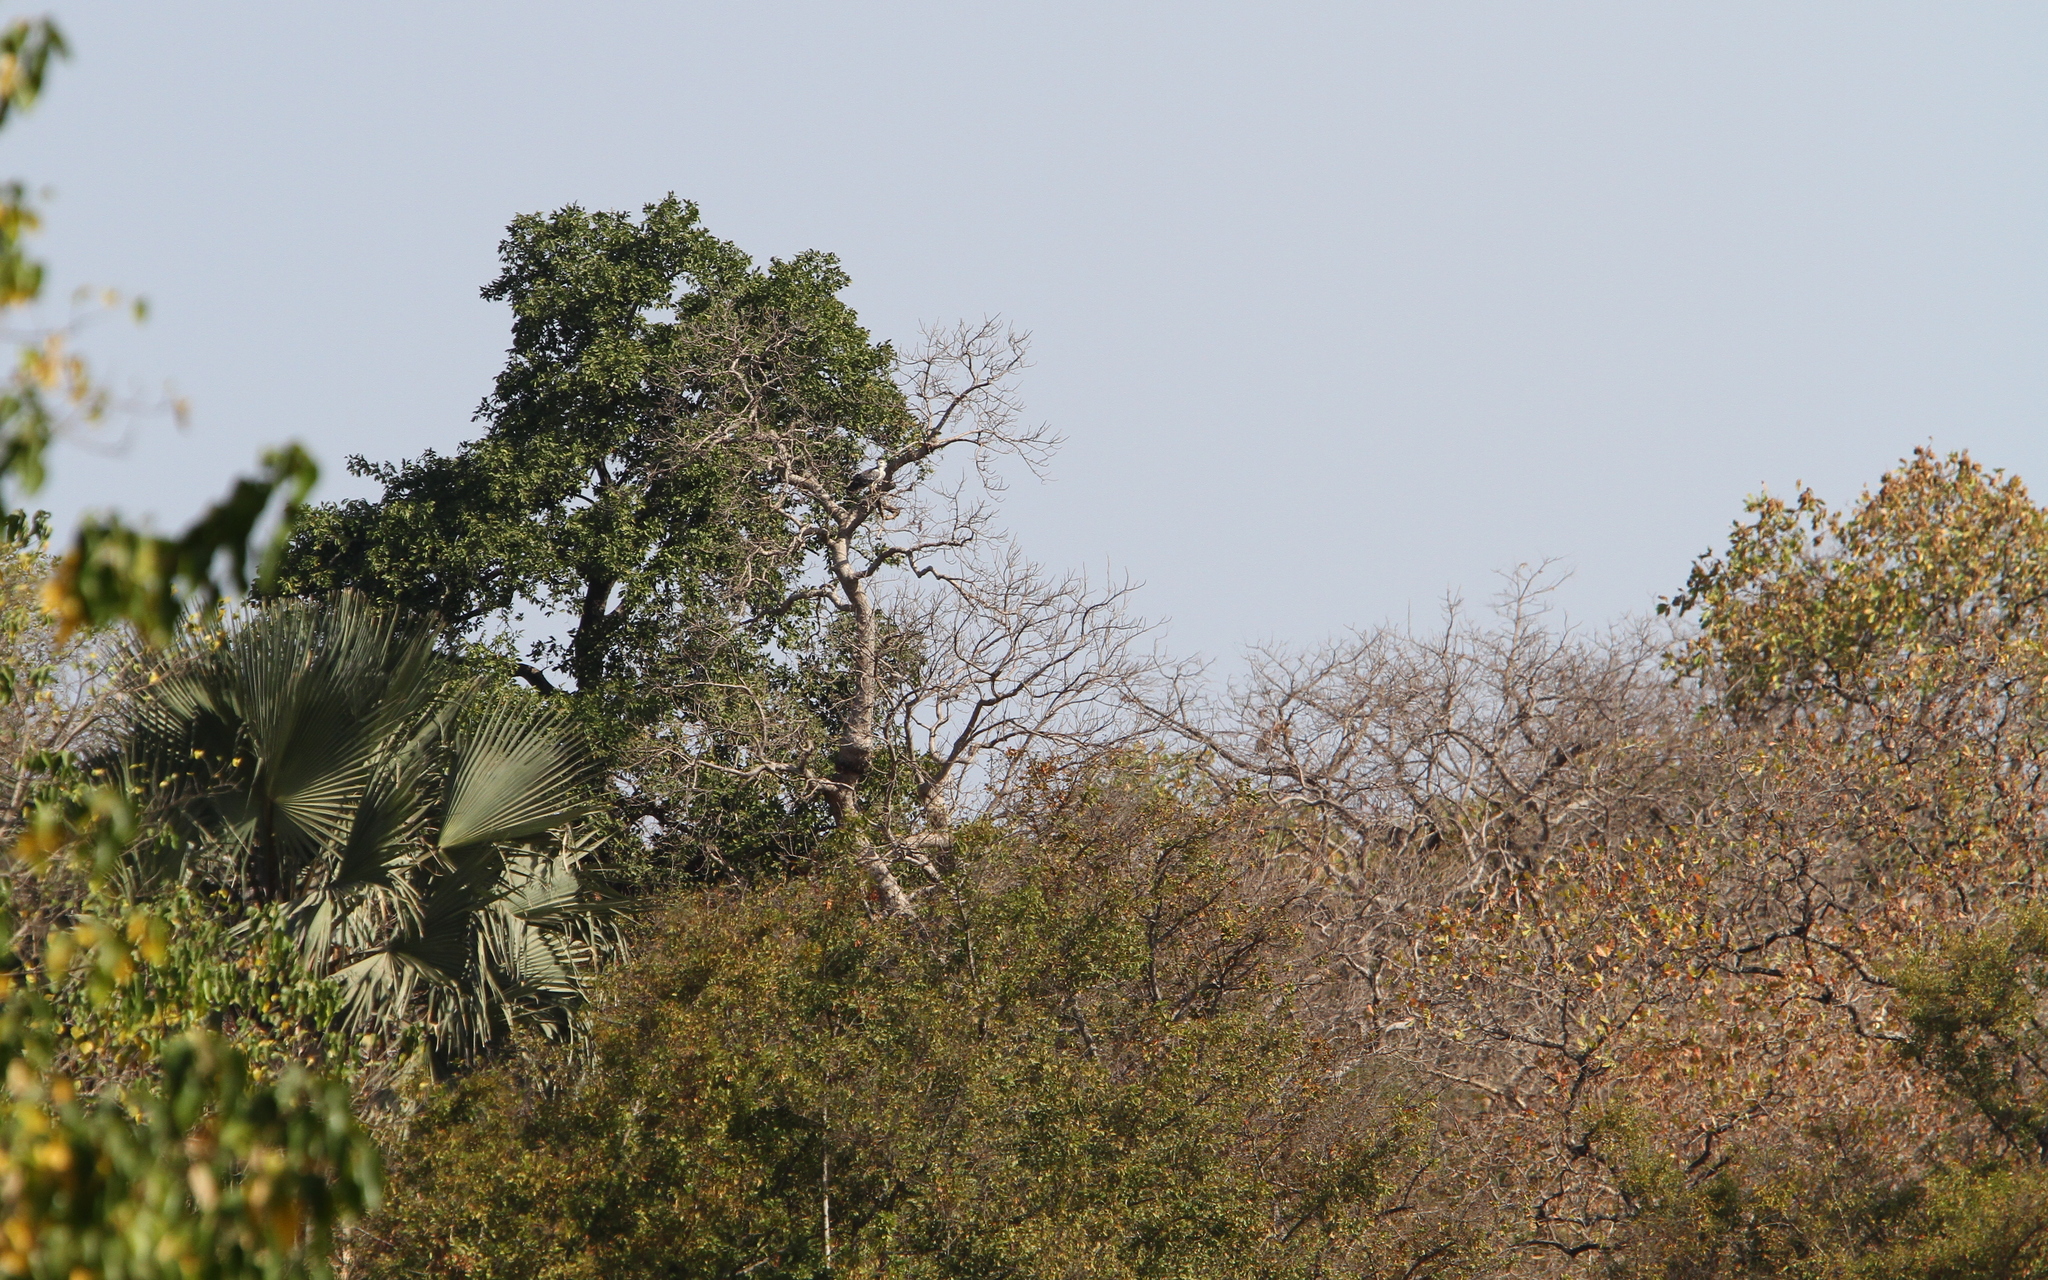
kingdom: Animalia
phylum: Chordata
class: Aves
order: Accipitriformes
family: Accipitridae
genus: Polemaetus
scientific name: Polemaetus bellicosus
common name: Martial eagle
